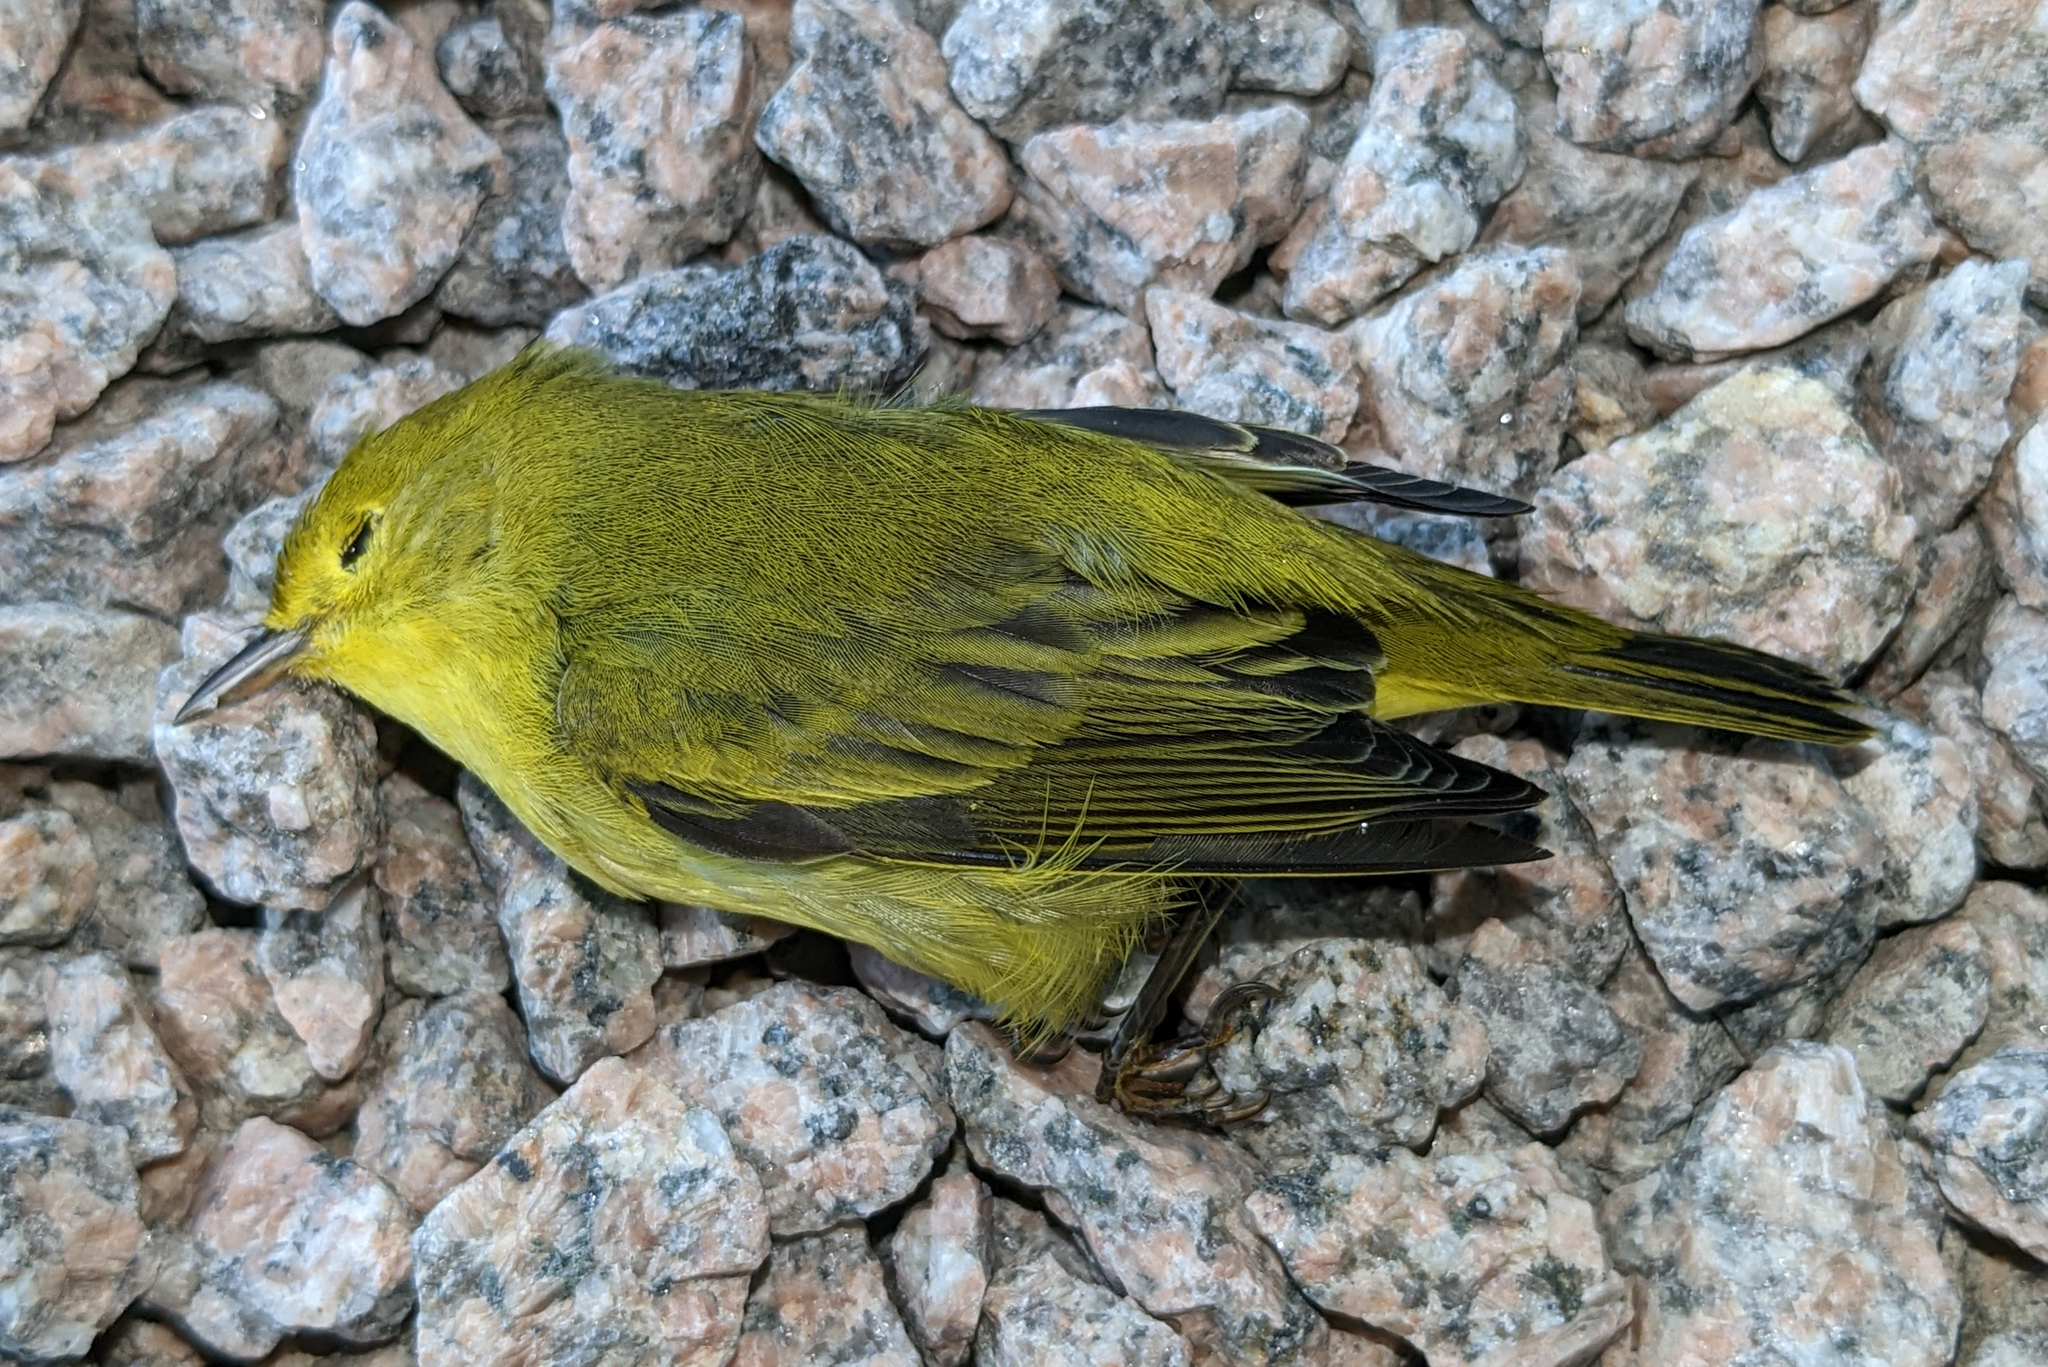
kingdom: Animalia
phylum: Chordata
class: Aves
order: Passeriformes
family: Parulidae
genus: Setophaga
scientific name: Setophaga petechia
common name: Yellow warbler
